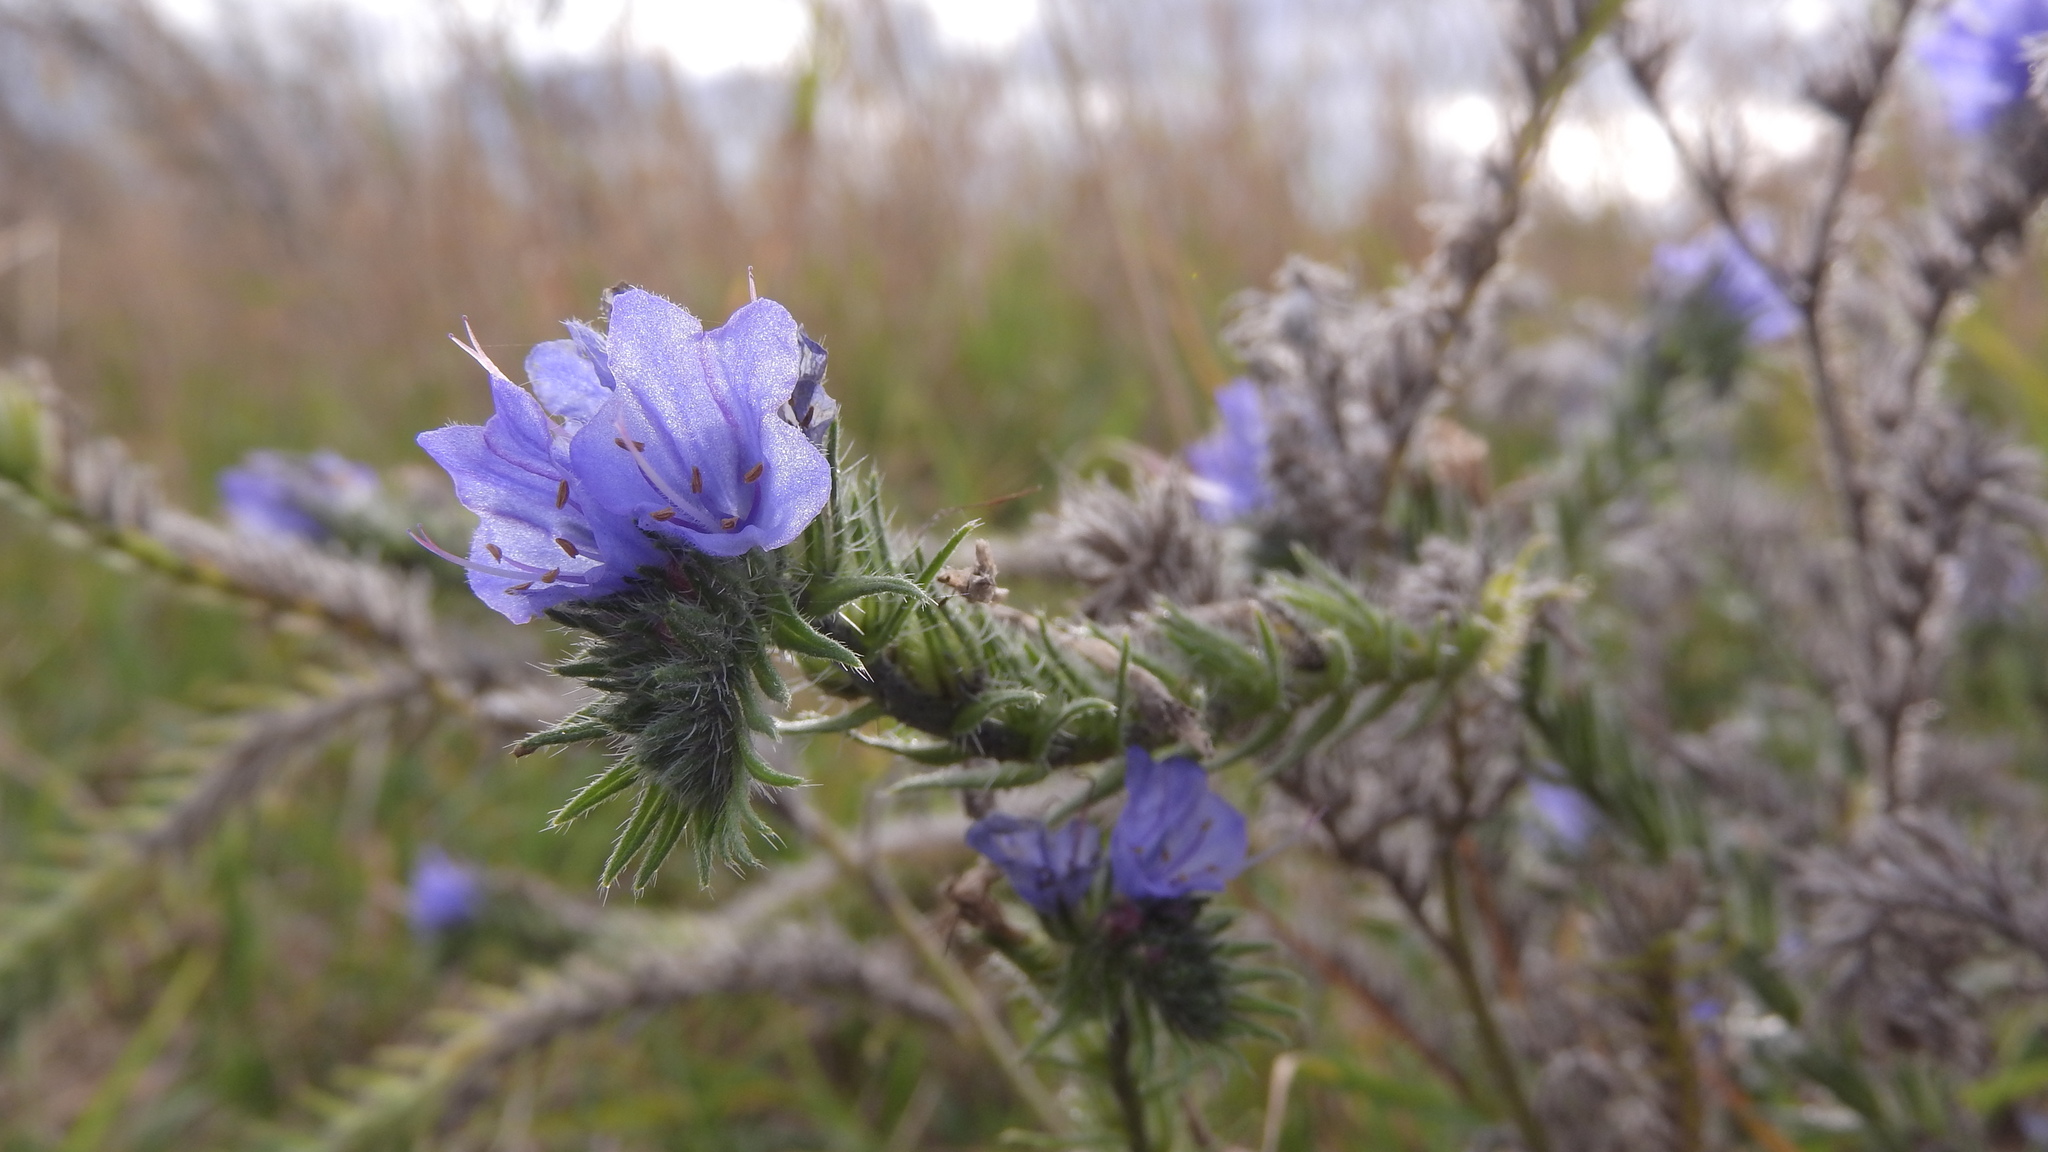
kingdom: Plantae
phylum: Tracheophyta
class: Magnoliopsida
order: Boraginales
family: Boraginaceae
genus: Echium
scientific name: Echium vulgare
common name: Common viper's bugloss
